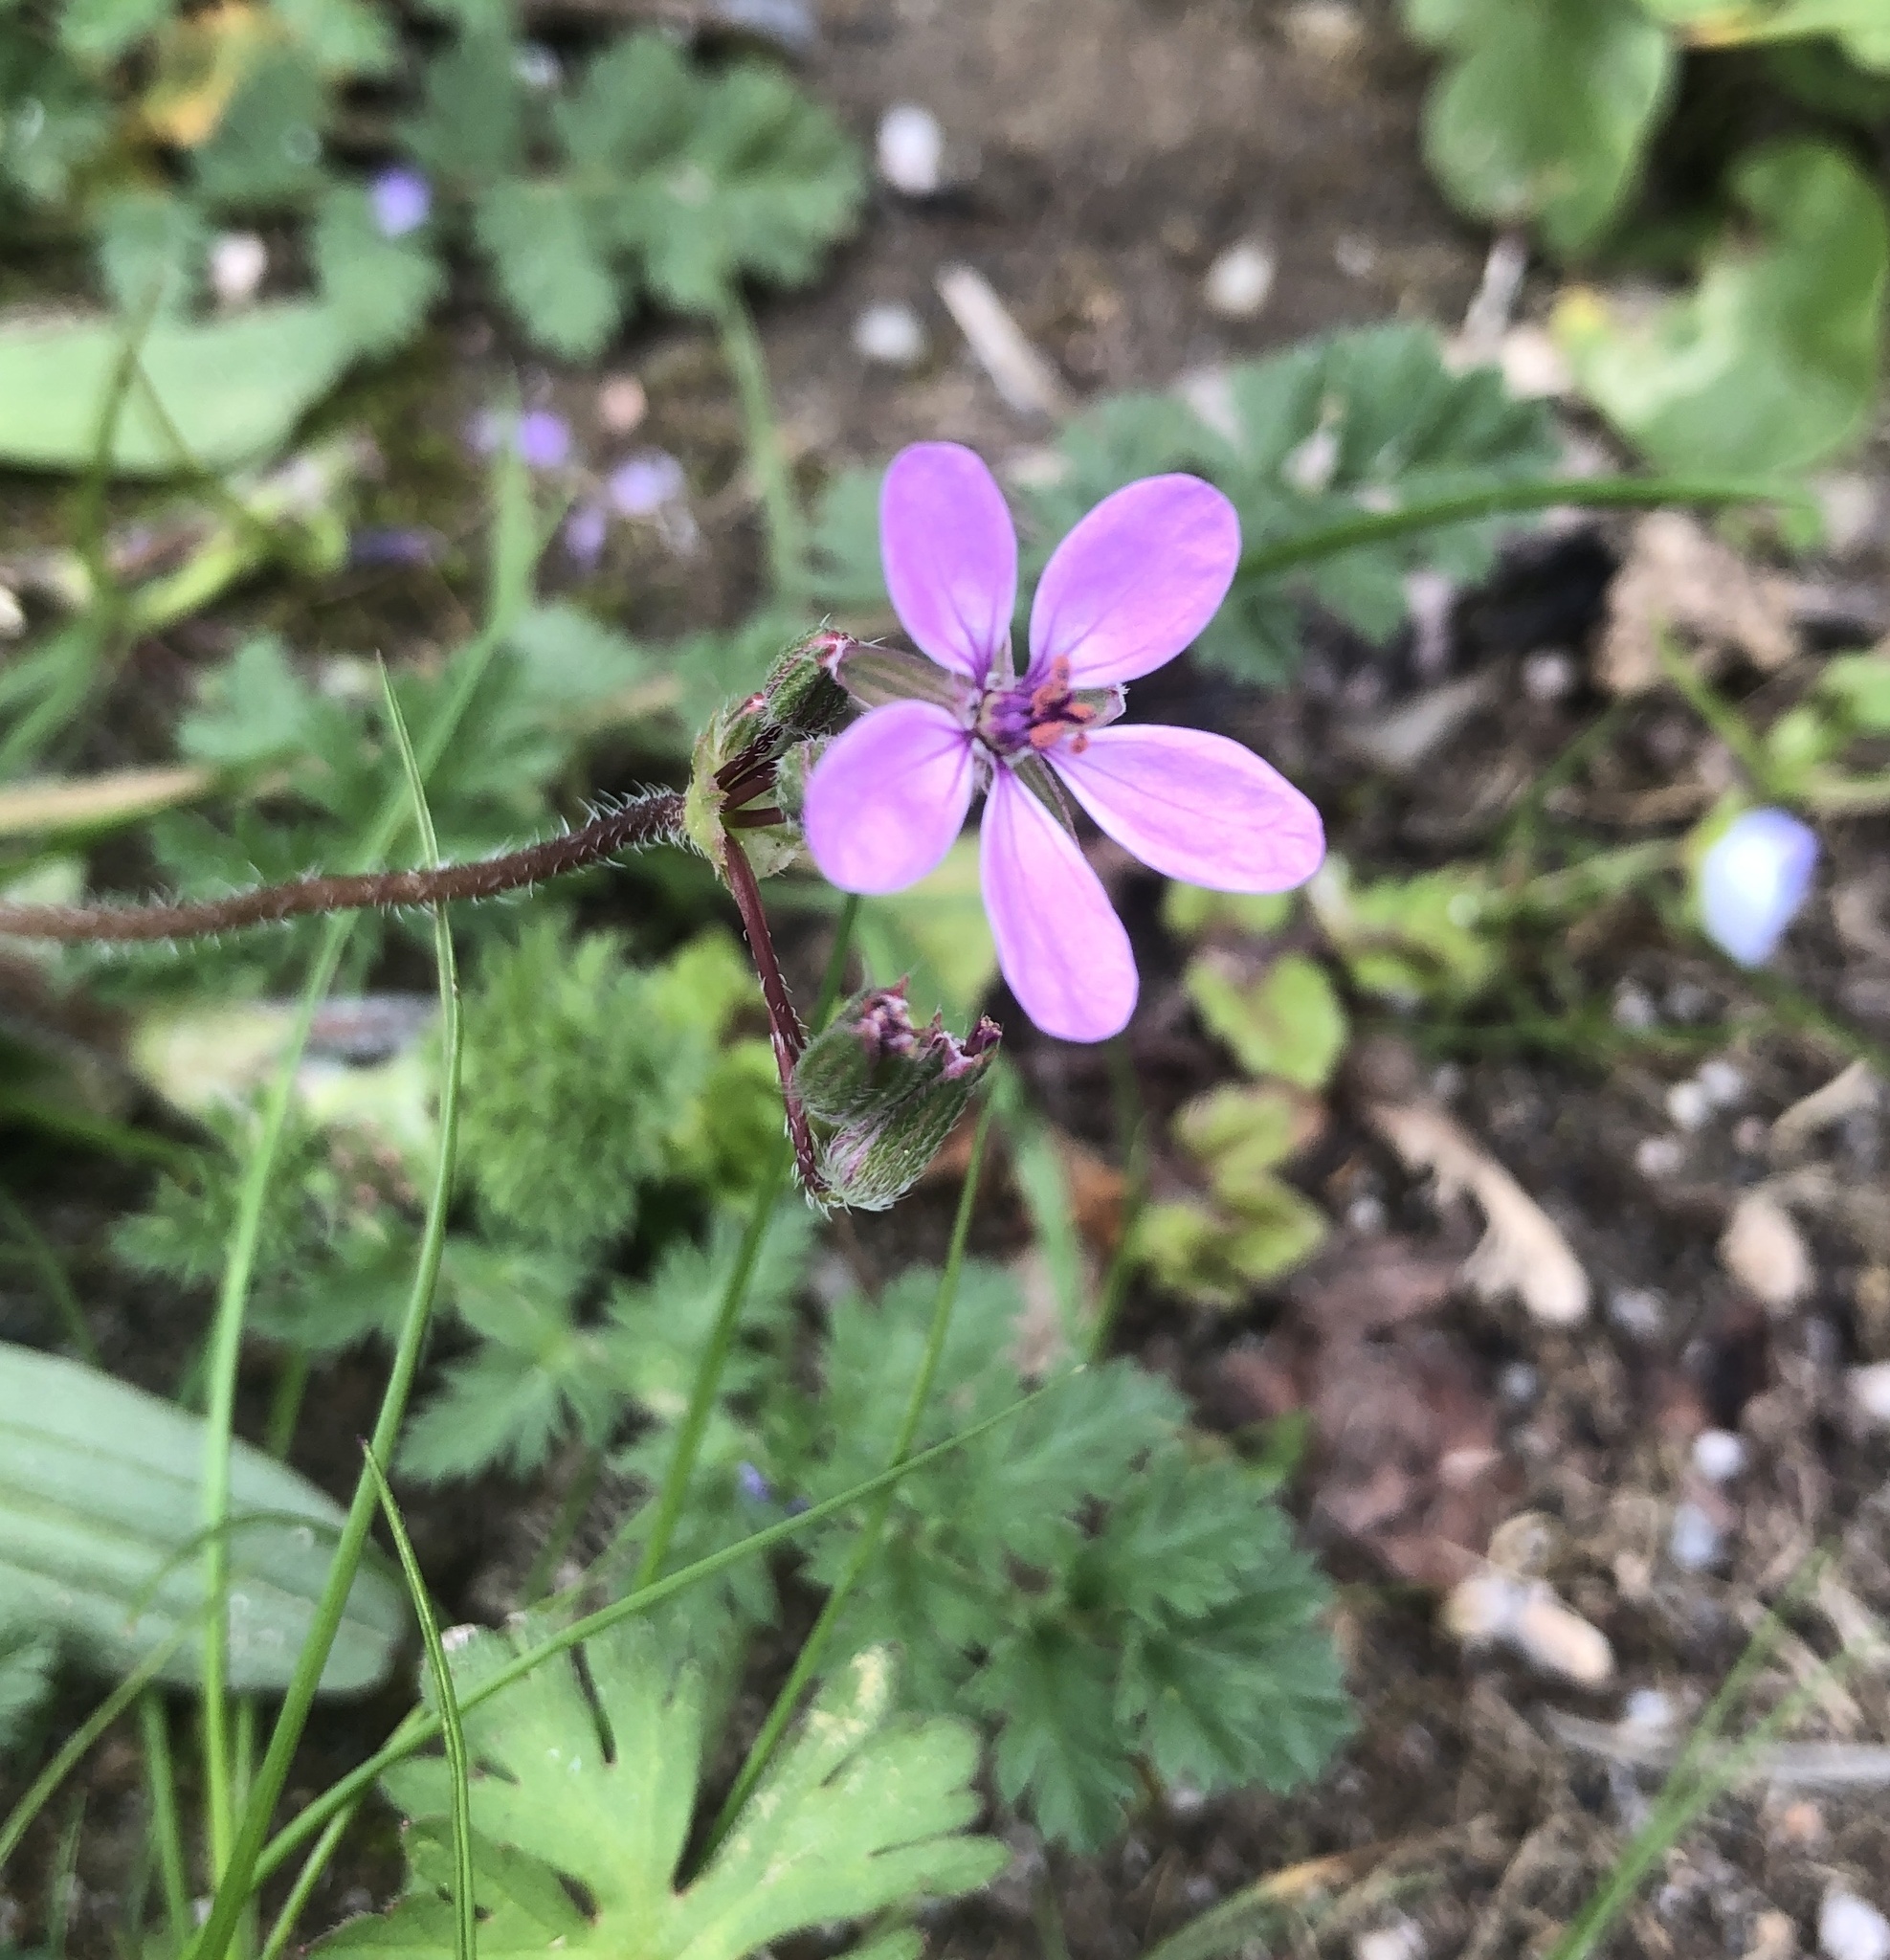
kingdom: Plantae
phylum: Tracheophyta
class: Magnoliopsida
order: Geraniales
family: Geraniaceae
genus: Erodium
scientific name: Erodium cicutarium
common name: Common stork's-bill
